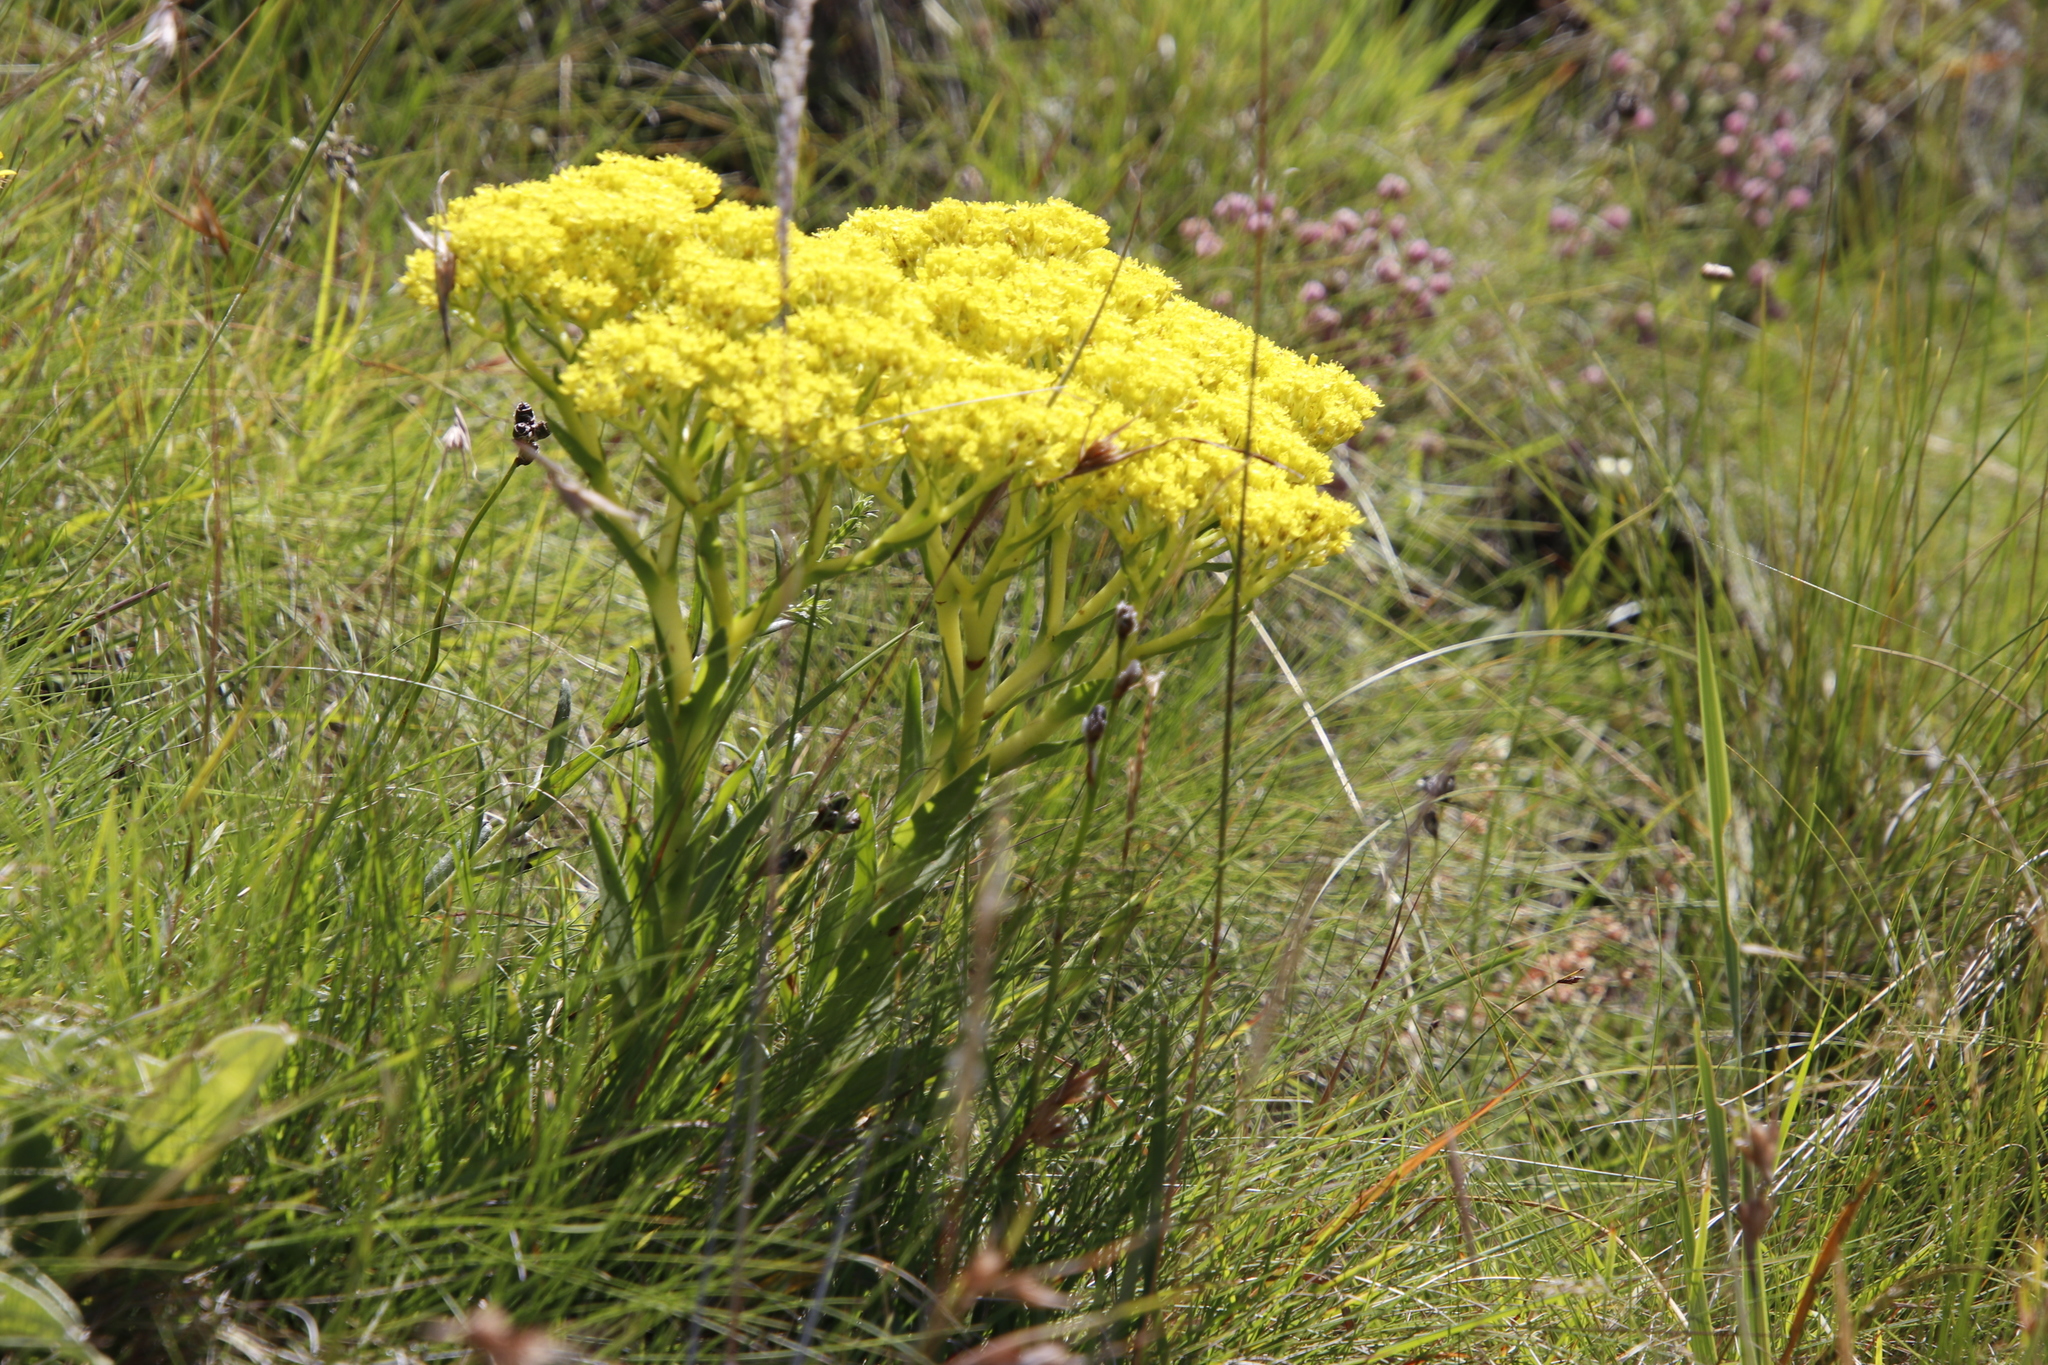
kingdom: Plantae
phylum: Tracheophyta
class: Magnoliopsida
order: Saxifragales
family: Crassulaceae
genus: Crassula
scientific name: Crassula vaginata
